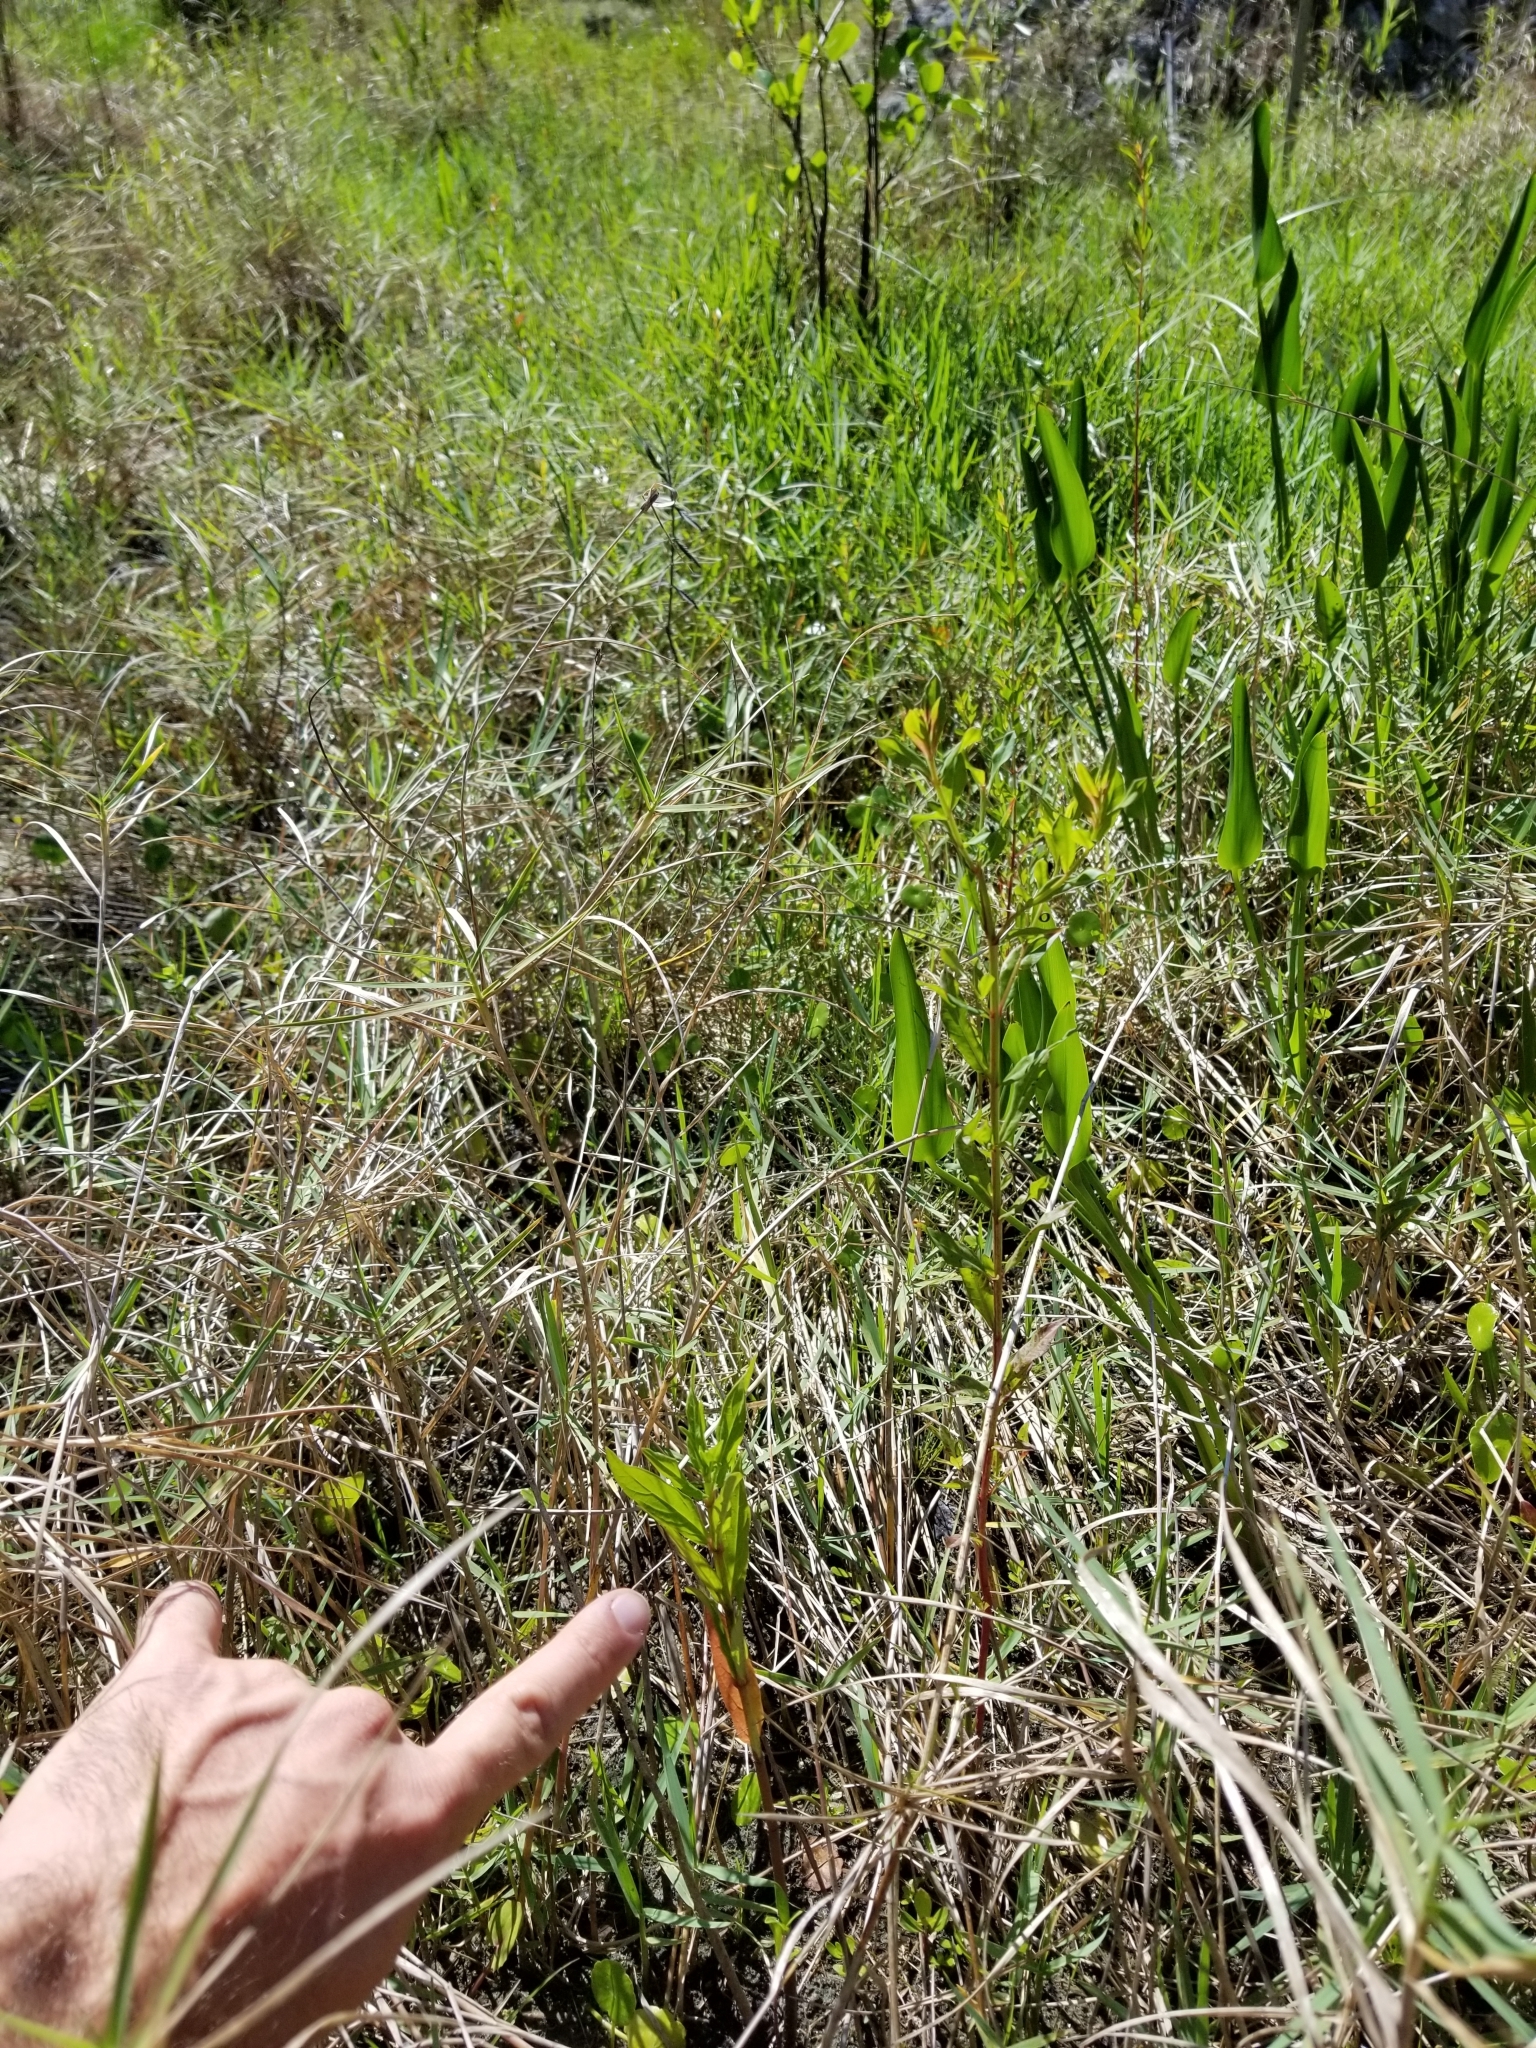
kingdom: Plantae
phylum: Tracheophyta
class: Magnoliopsida
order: Gentianales
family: Apocynaceae
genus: Asclepias
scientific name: Asclepias incarnata
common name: Swamp milkweed
